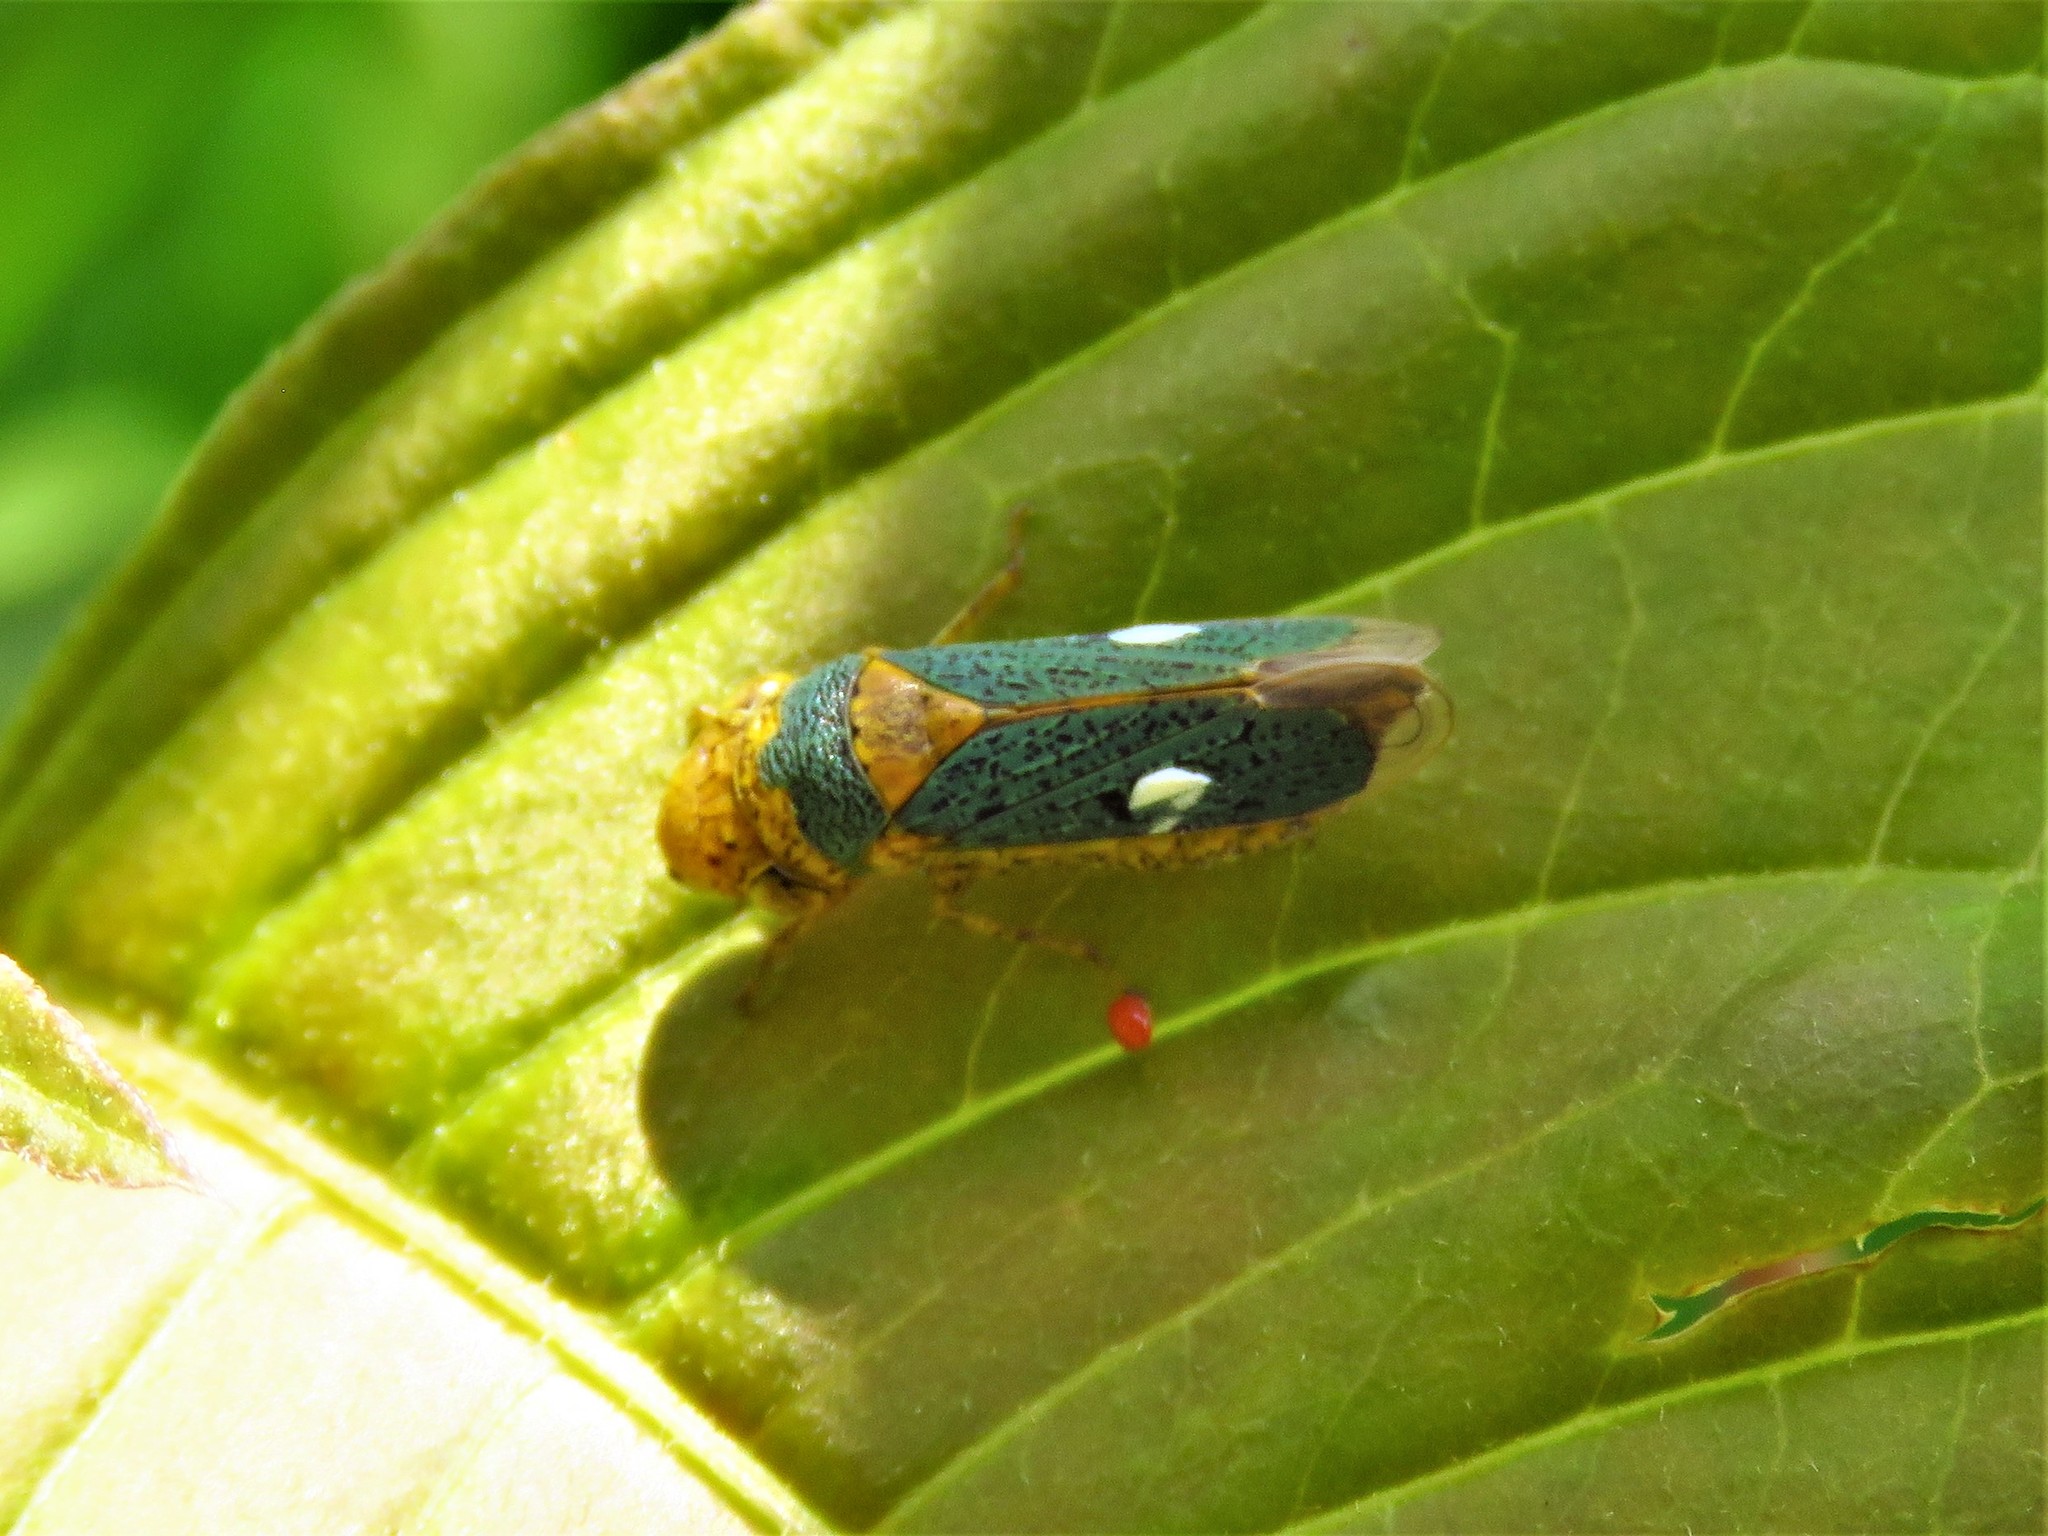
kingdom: Animalia
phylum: Arthropoda
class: Insecta
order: Hemiptera
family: Cicadellidae
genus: Oncometopia
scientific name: Oncometopia clarior
